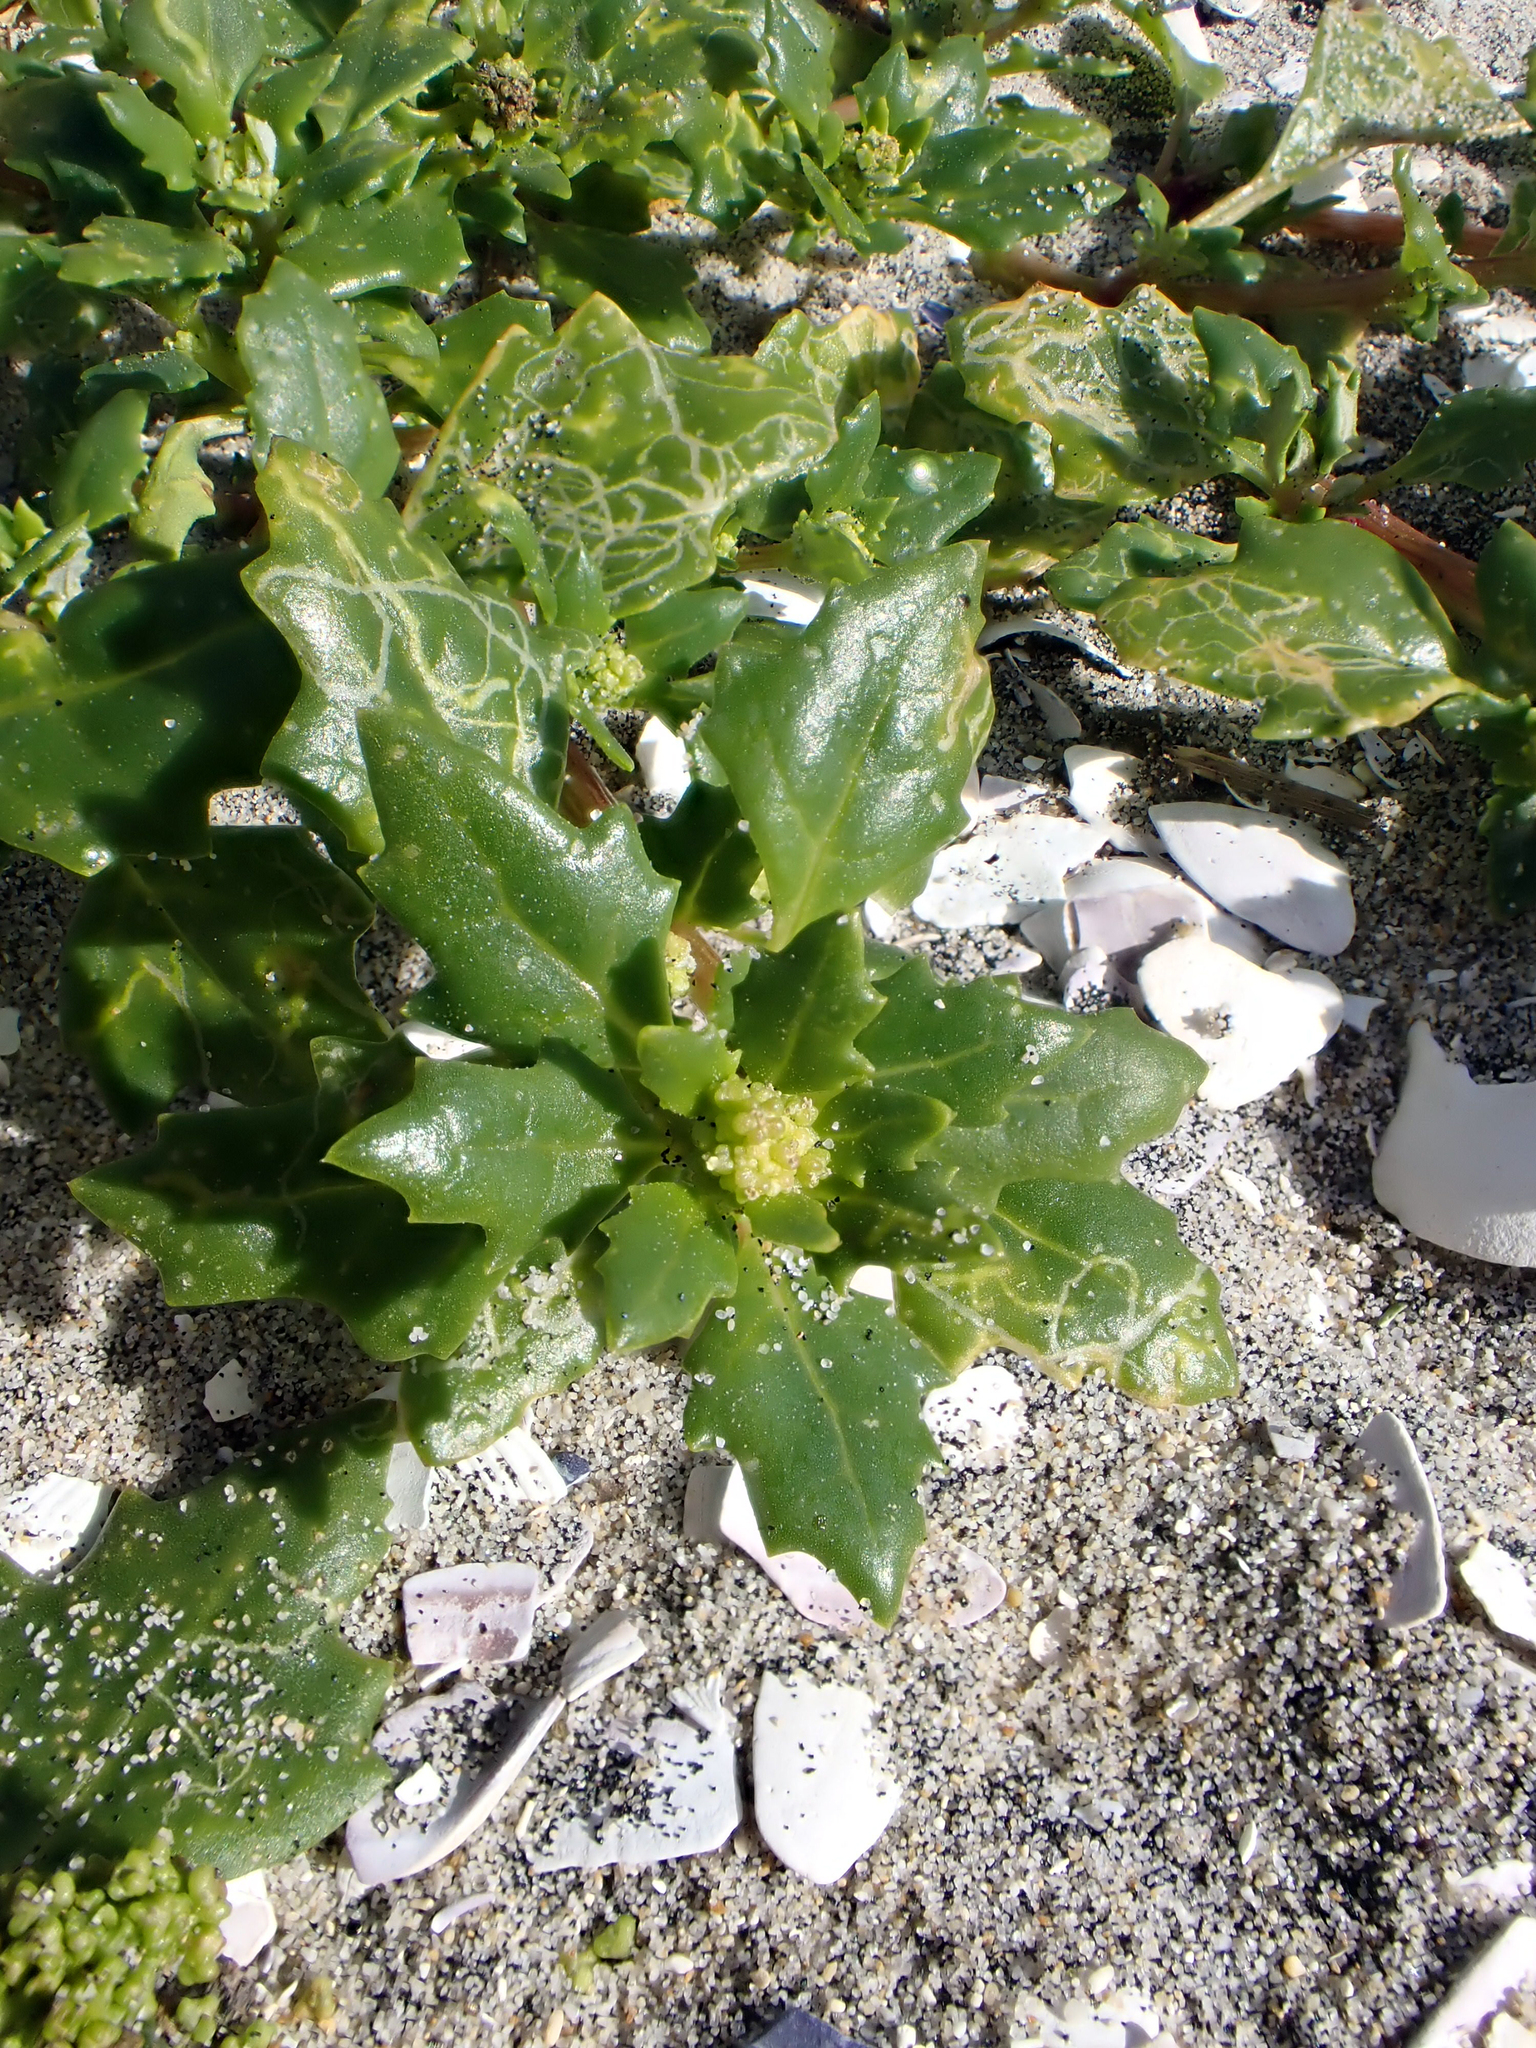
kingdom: Plantae
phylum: Tracheophyta
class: Magnoliopsida
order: Caryophyllales
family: Amaranthaceae
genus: Oxybasis
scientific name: Oxybasis ambigua
